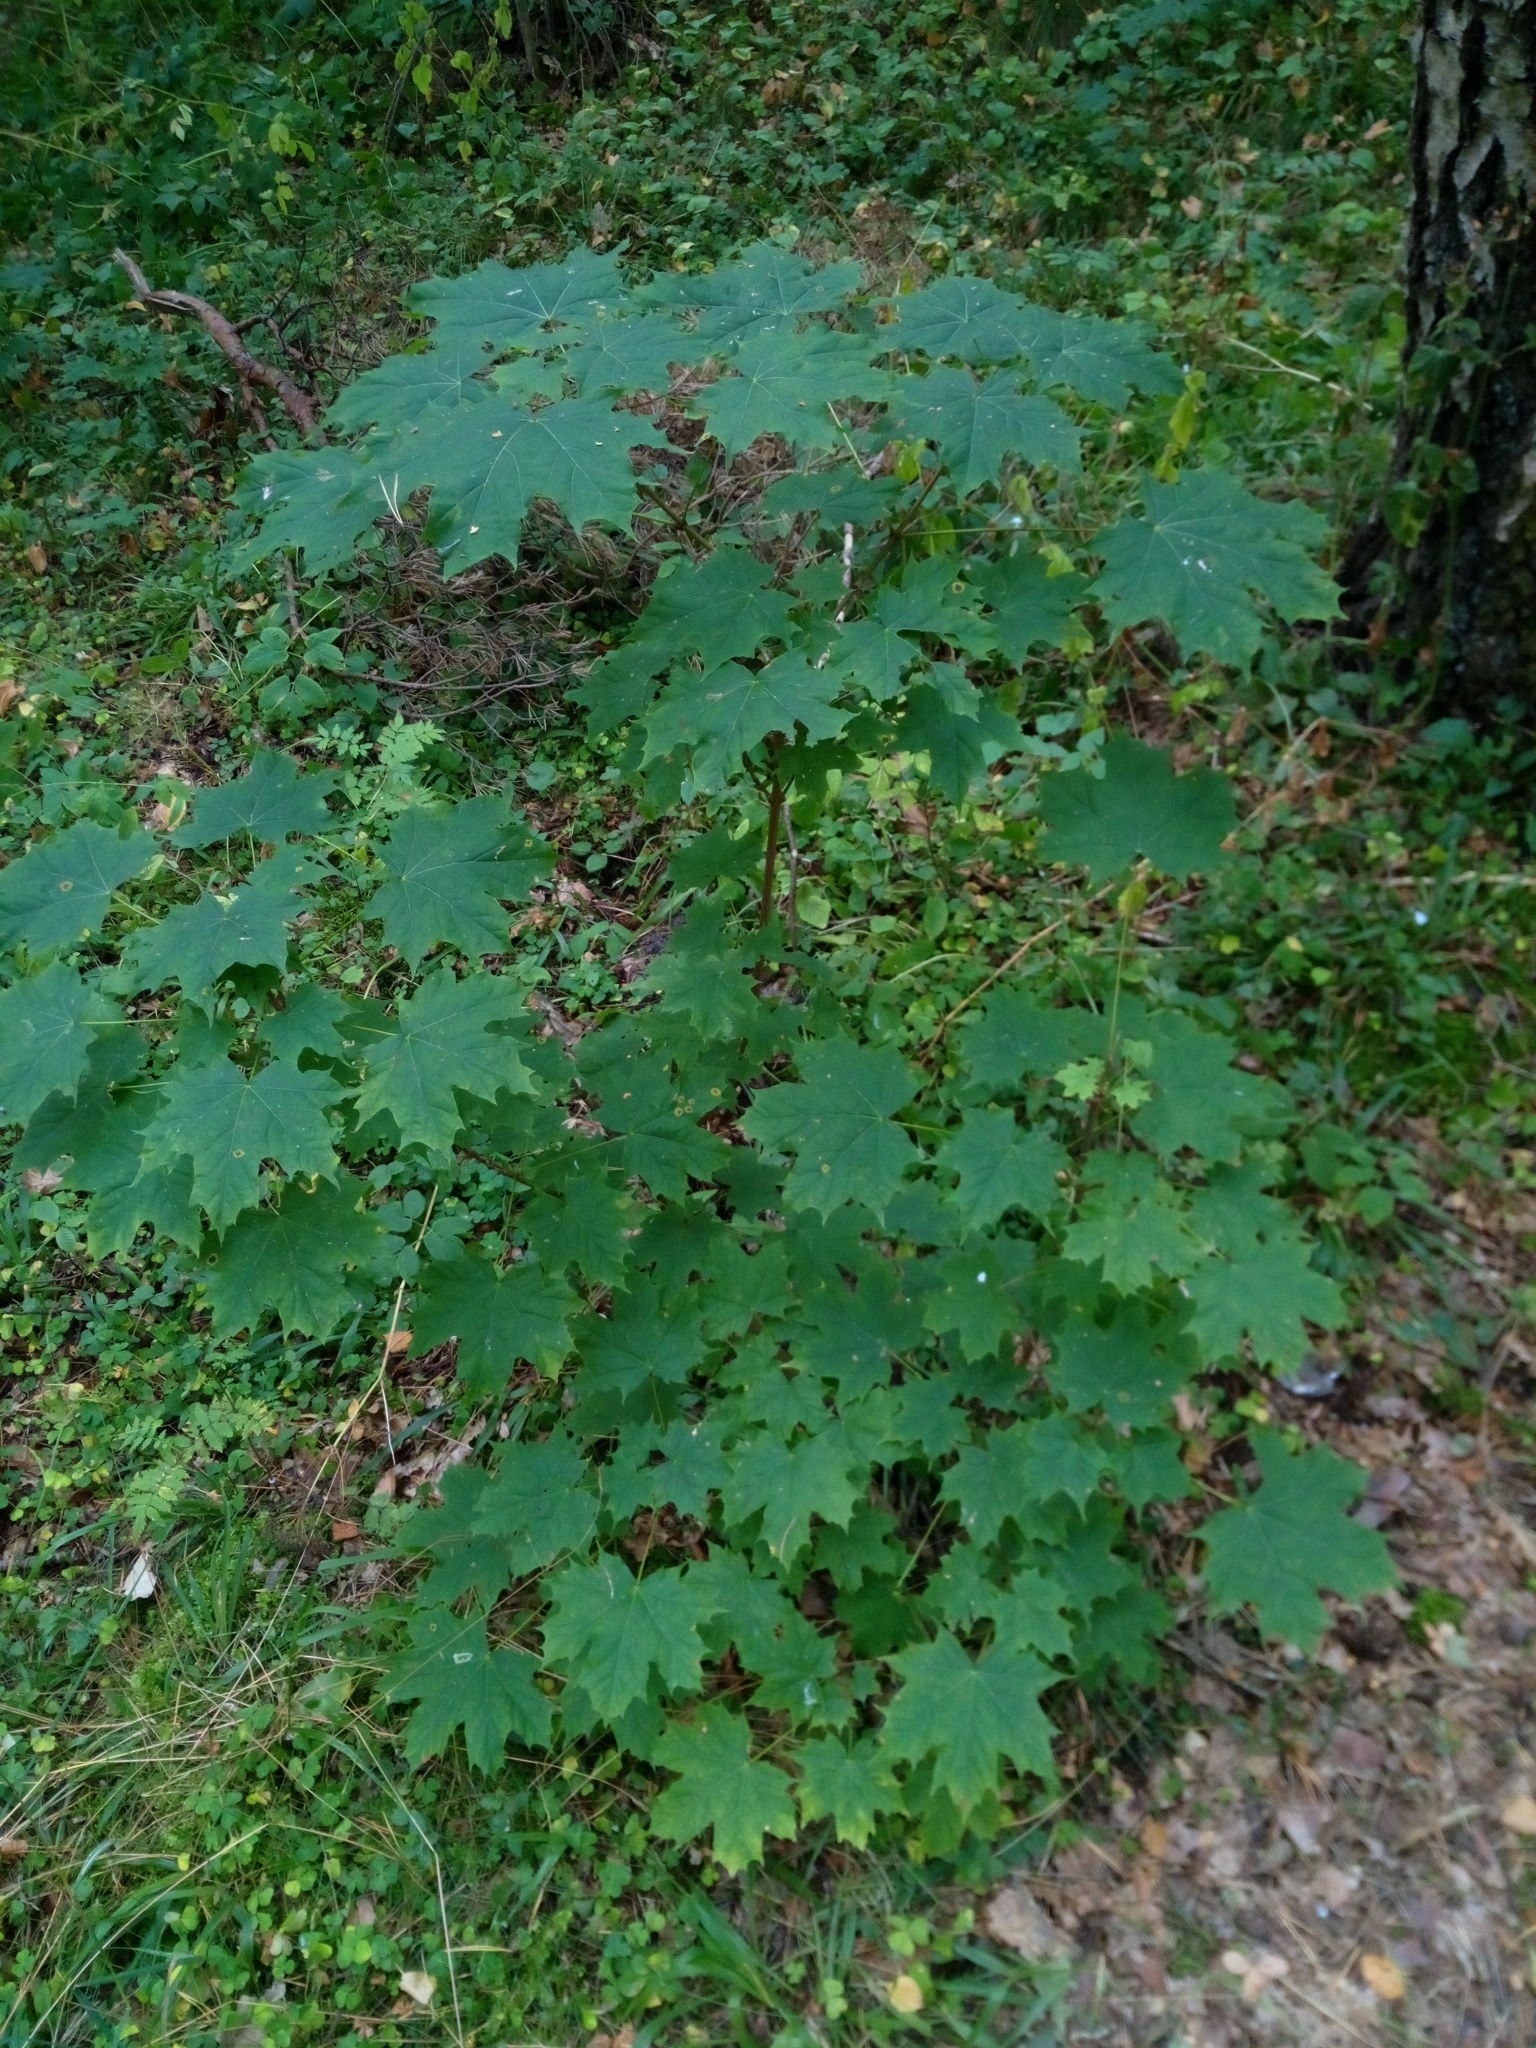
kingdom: Plantae
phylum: Tracheophyta
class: Magnoliopsida
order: Sapindales
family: Sapindaceae
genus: Acer
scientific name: Acer platanoides
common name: Norway maple
